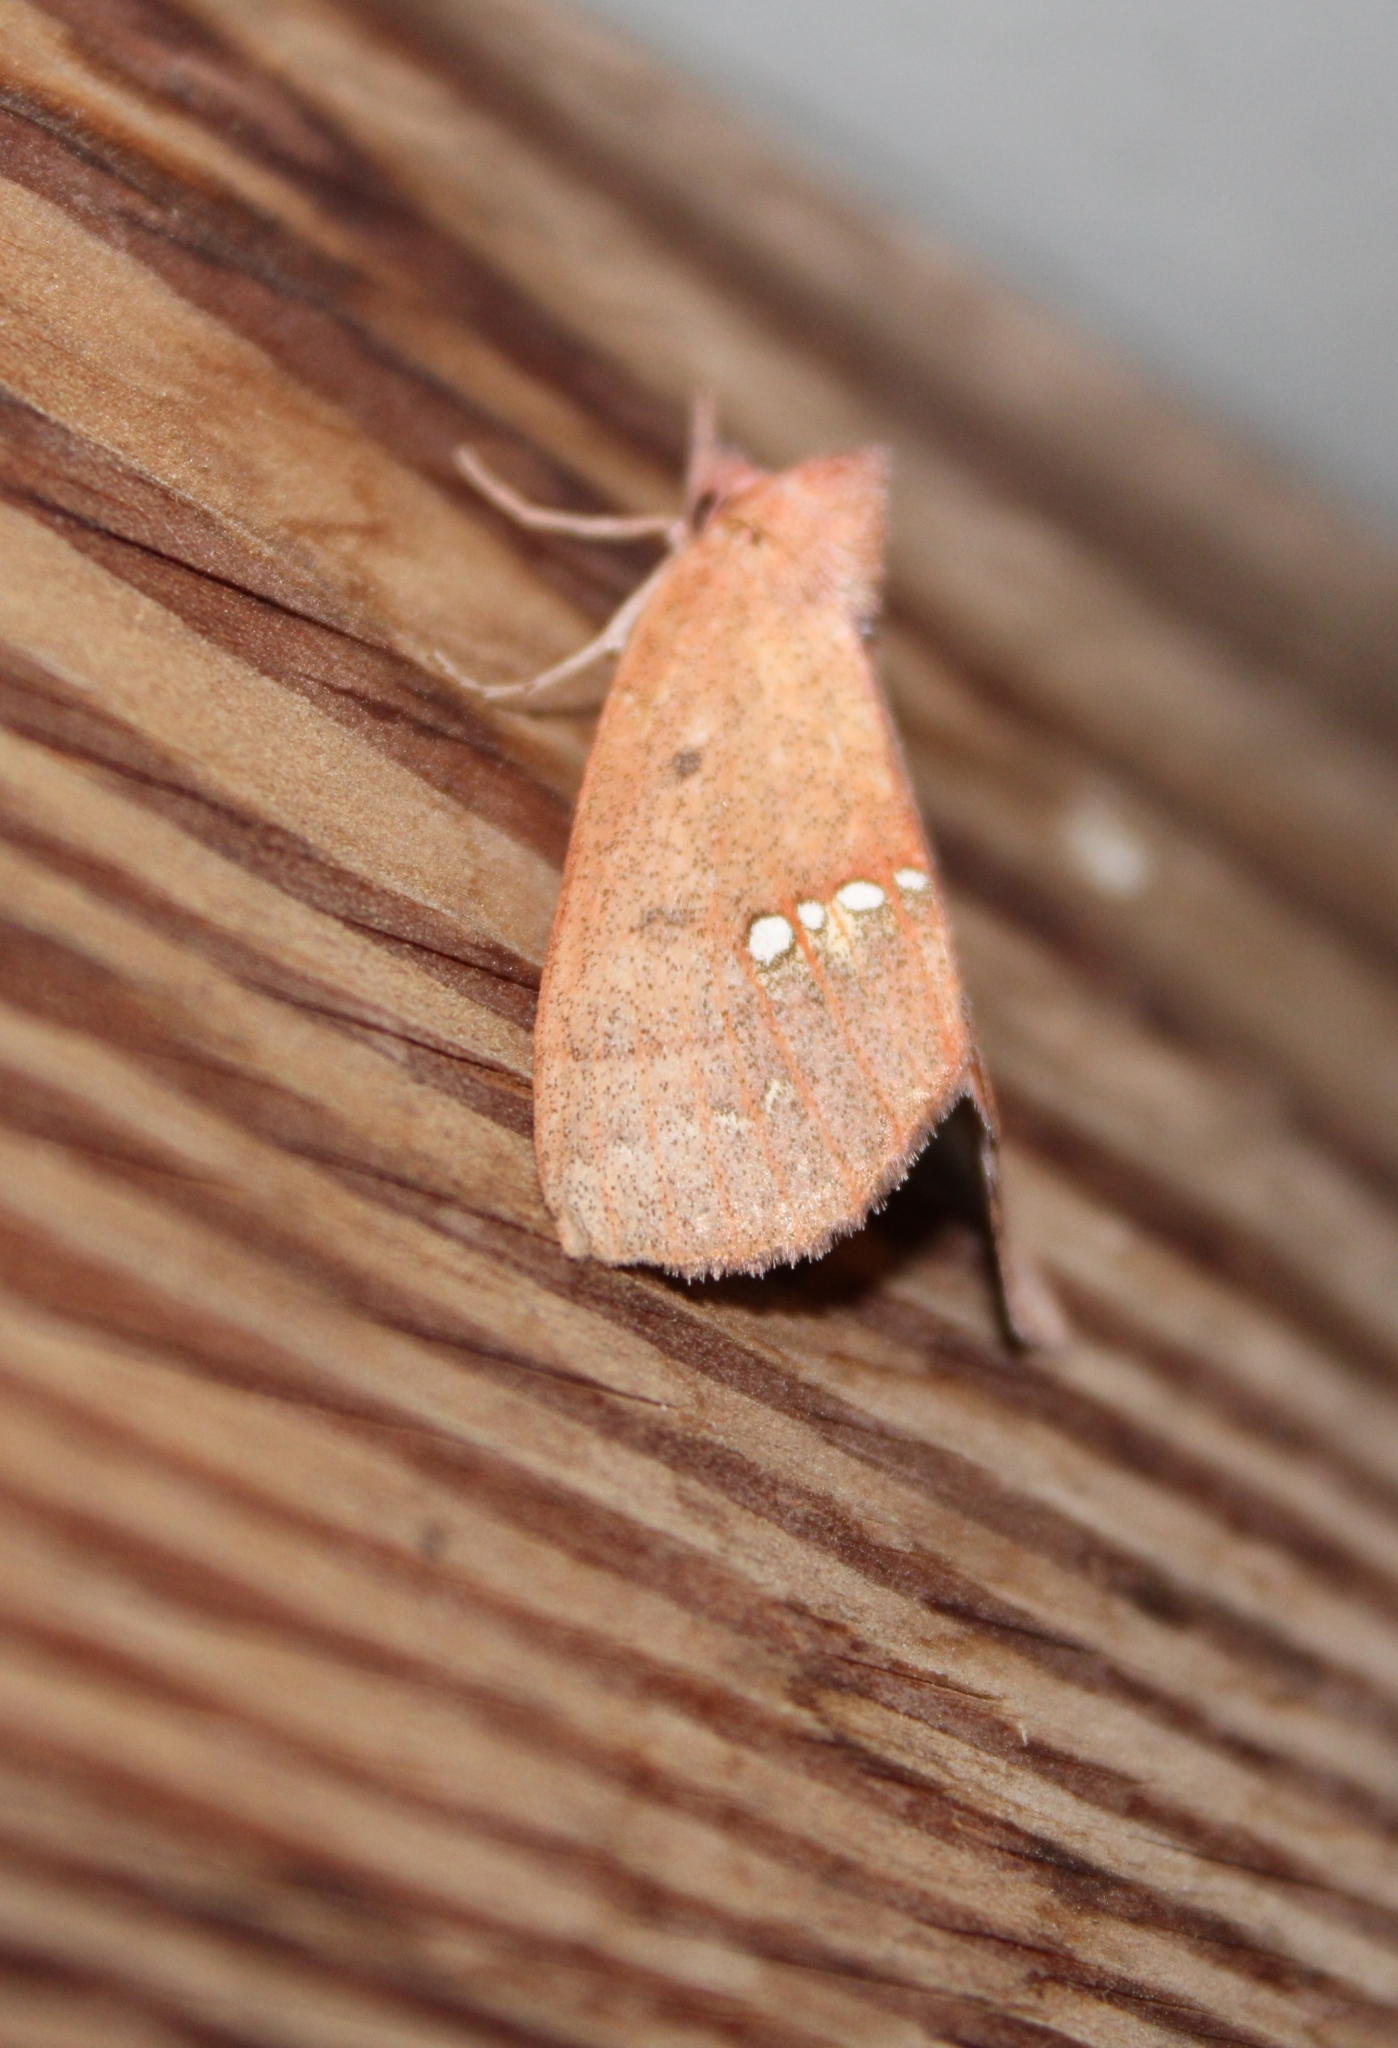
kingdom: Animalia
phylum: Arthropoda
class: Insecta
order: Lepidoptera
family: Erebidae
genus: Hypsoropha
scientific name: Hypsoropha monilis
